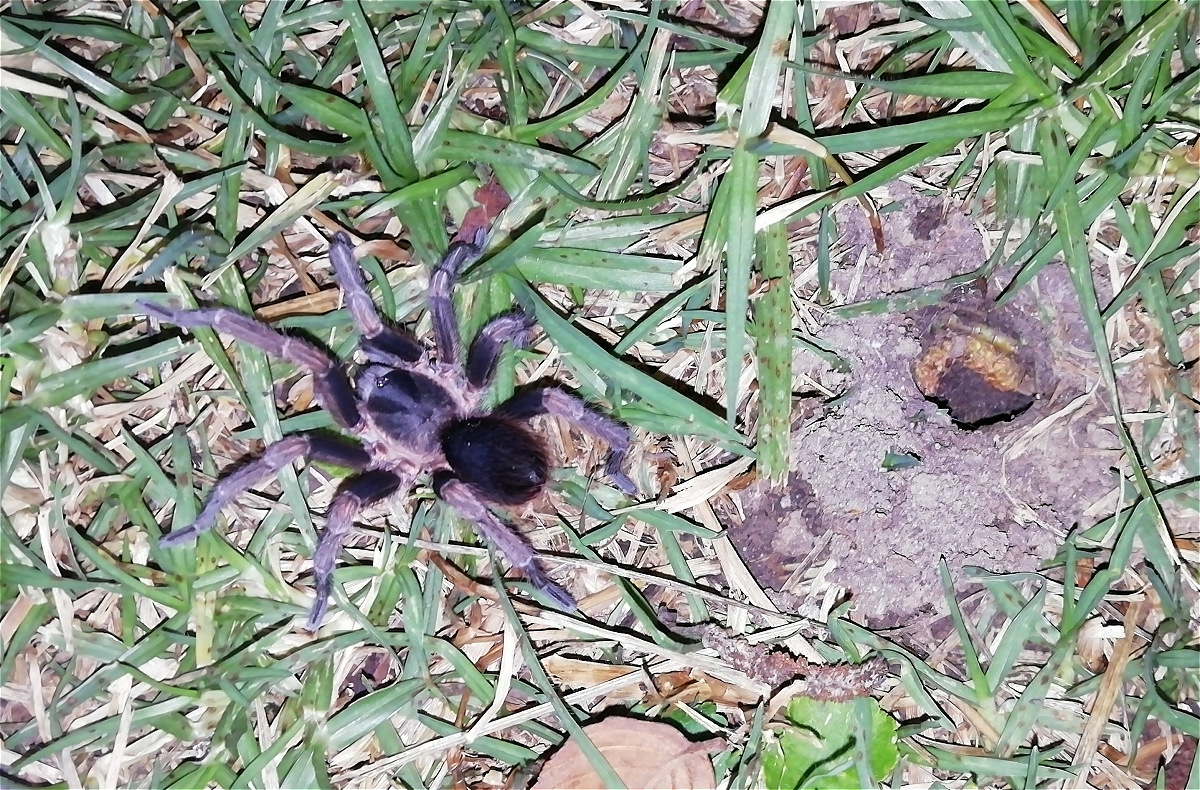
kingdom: Animalia
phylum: Arthropoda
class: Arachnida
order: Araneae
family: Theraphosidae
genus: Cyclosternum
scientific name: Cyclosternum schmardae
